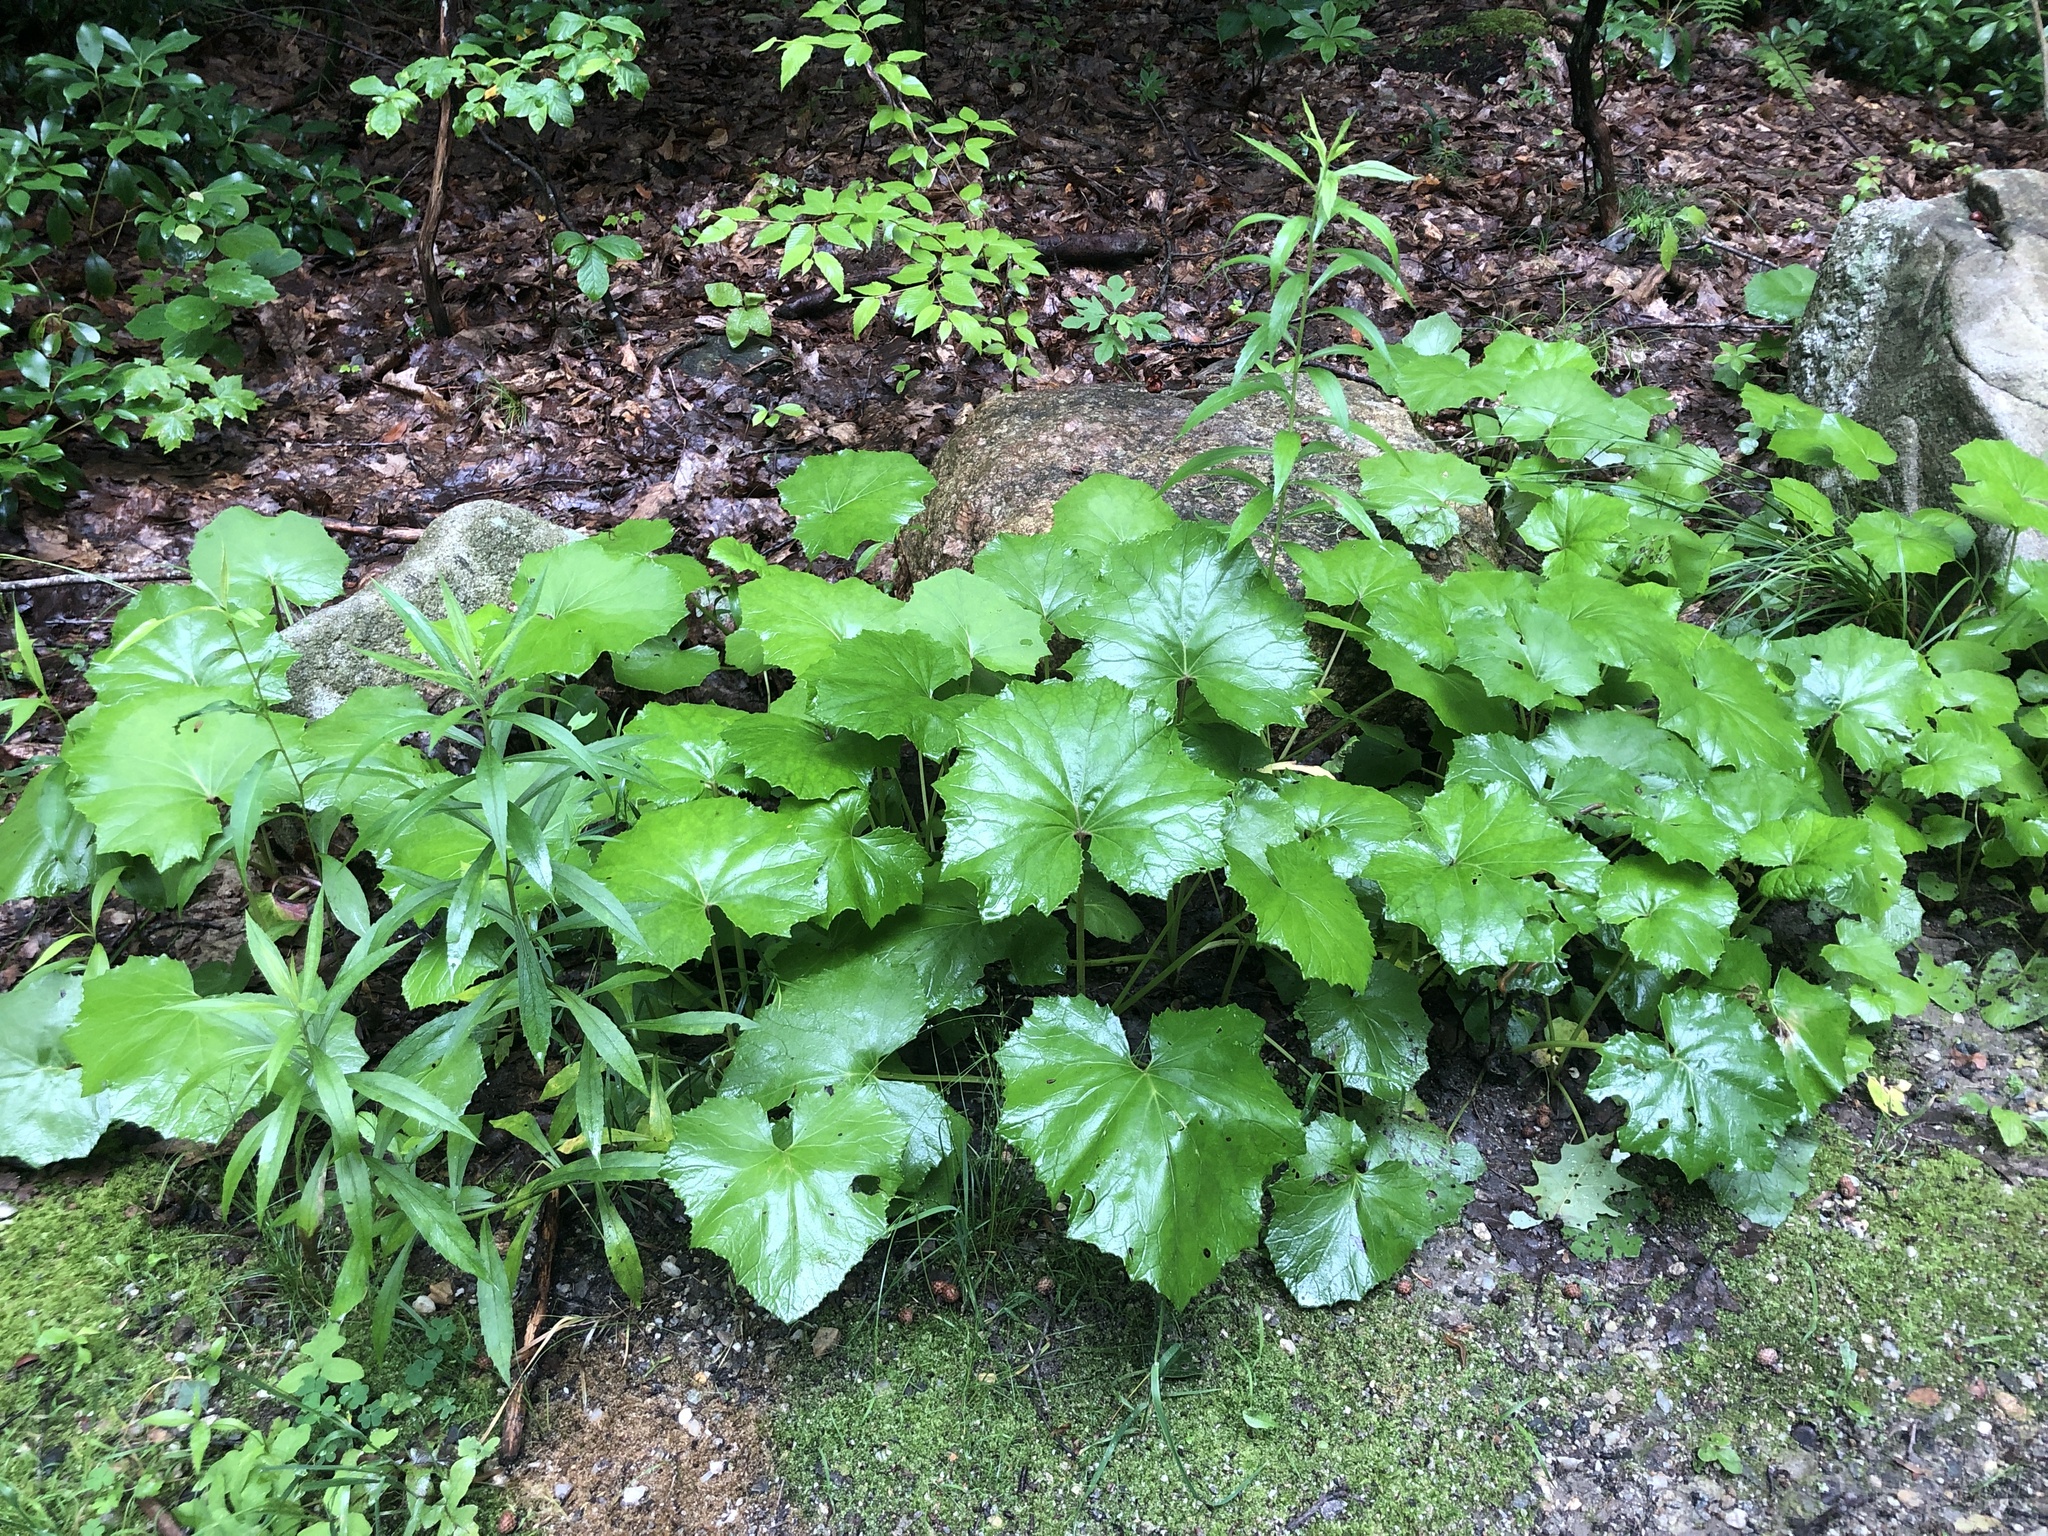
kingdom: Plantae
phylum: Tracheophyta
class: Magnoliopsida
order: Asterales
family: Asteraceae
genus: Tussilago
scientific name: Tussilago farfara
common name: Coltsfoot
